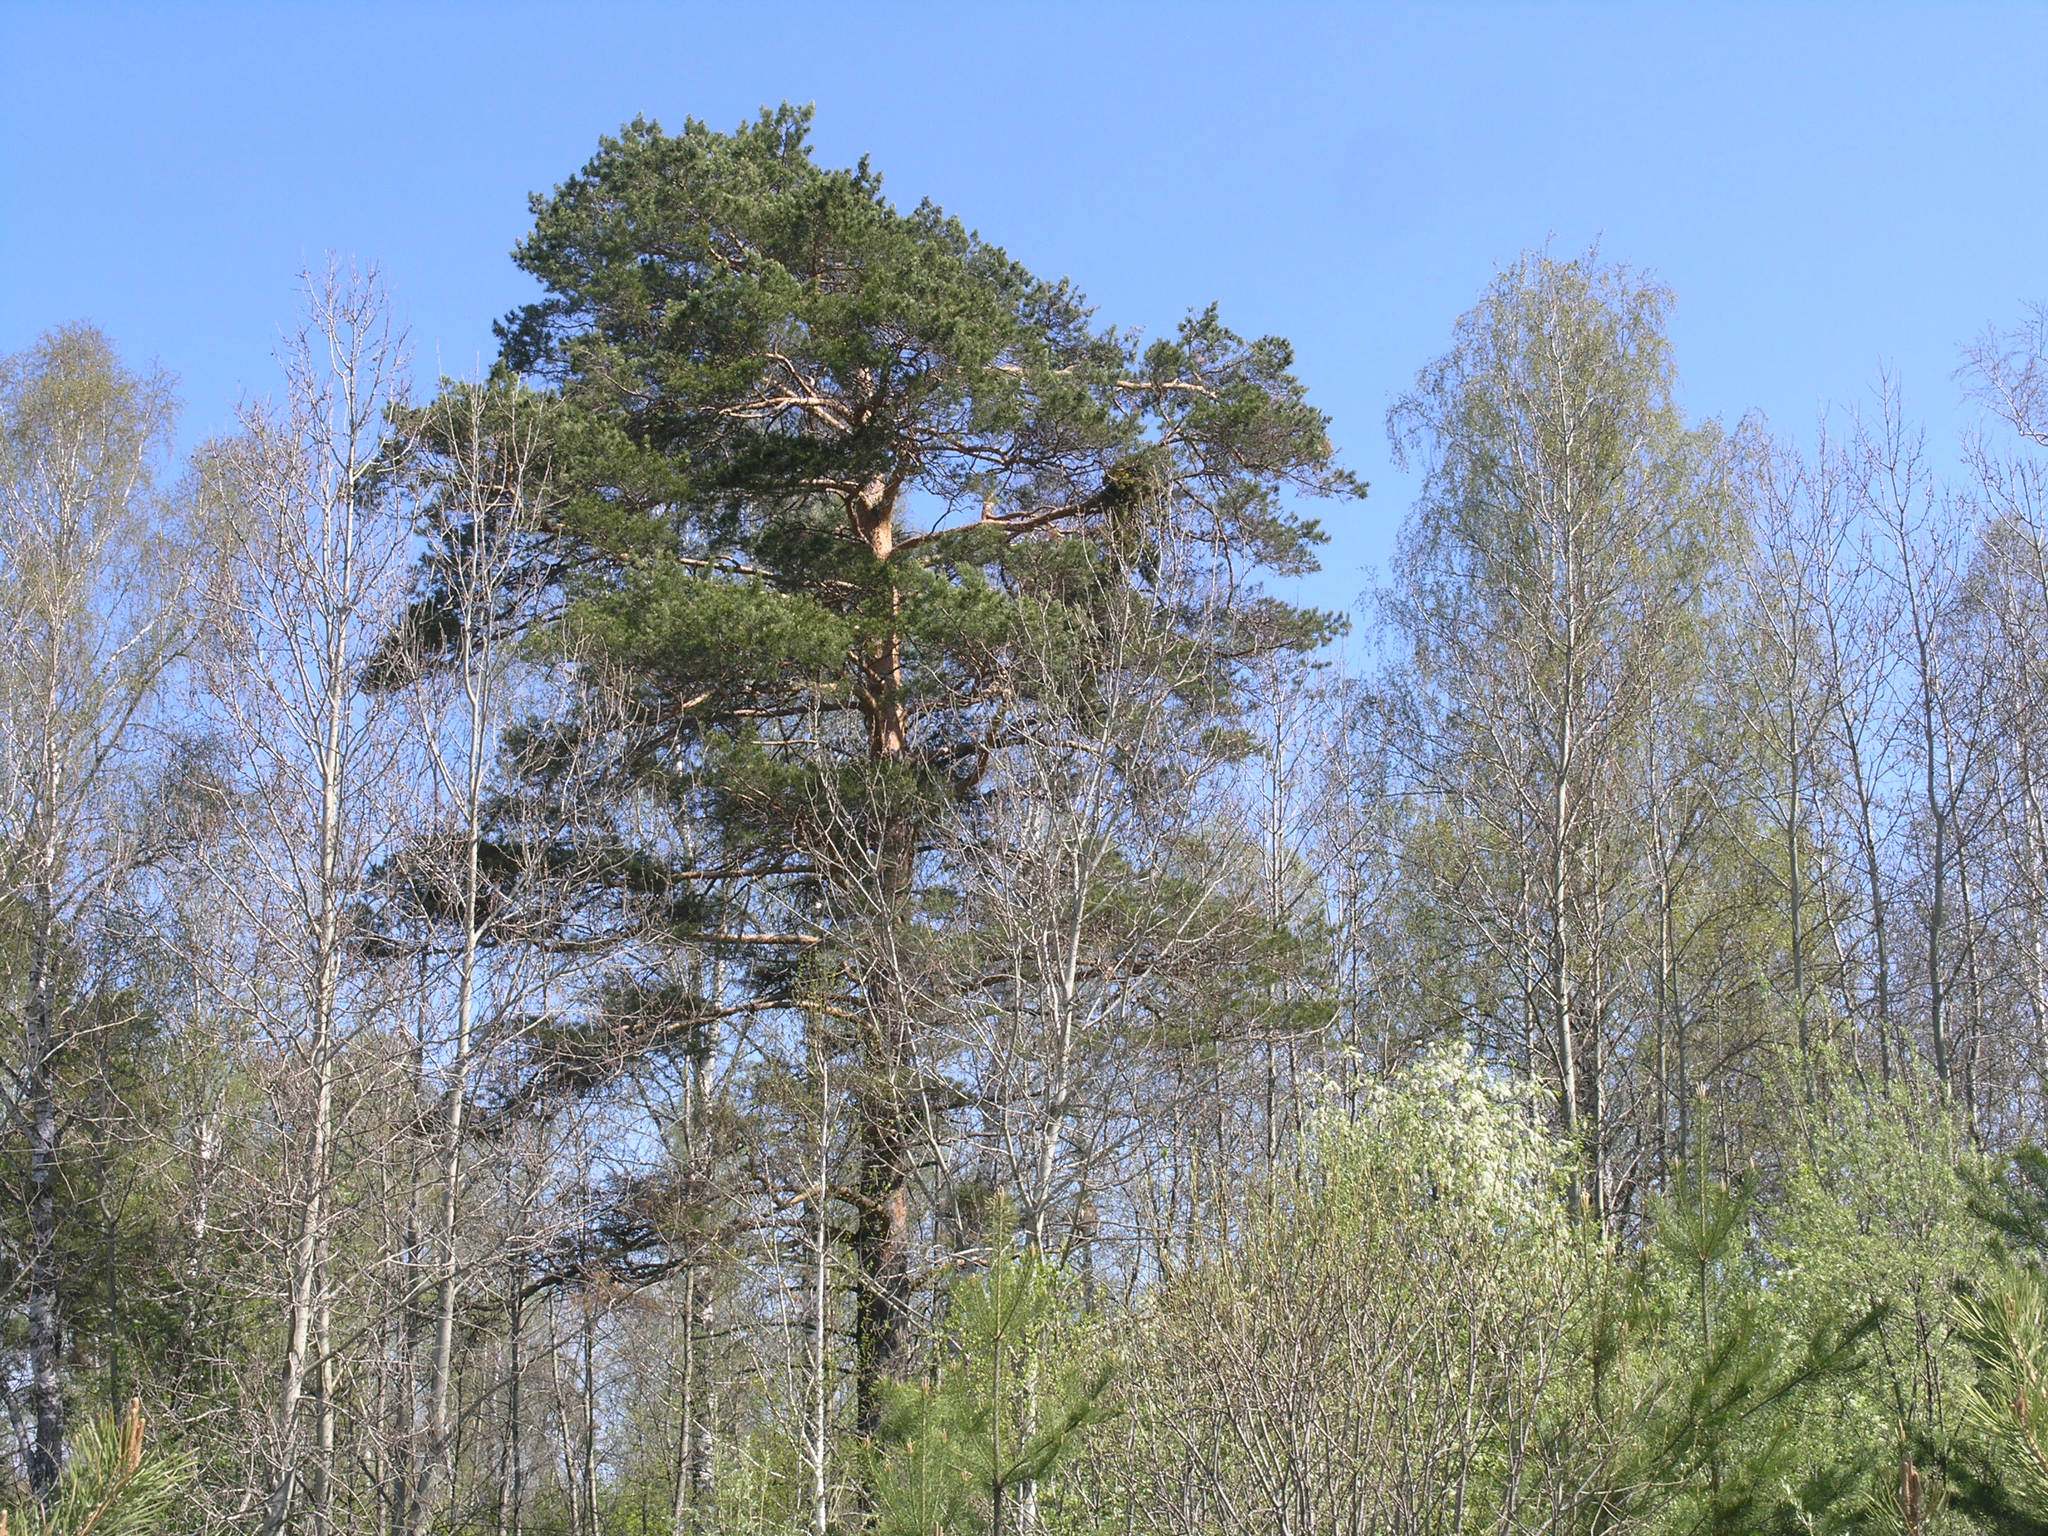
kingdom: Plantae
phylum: Tracheophyta
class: Pinopsida
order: Pinales
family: Pinaceae
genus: Pinus
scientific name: Pinus sylvestris
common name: Scots pine
